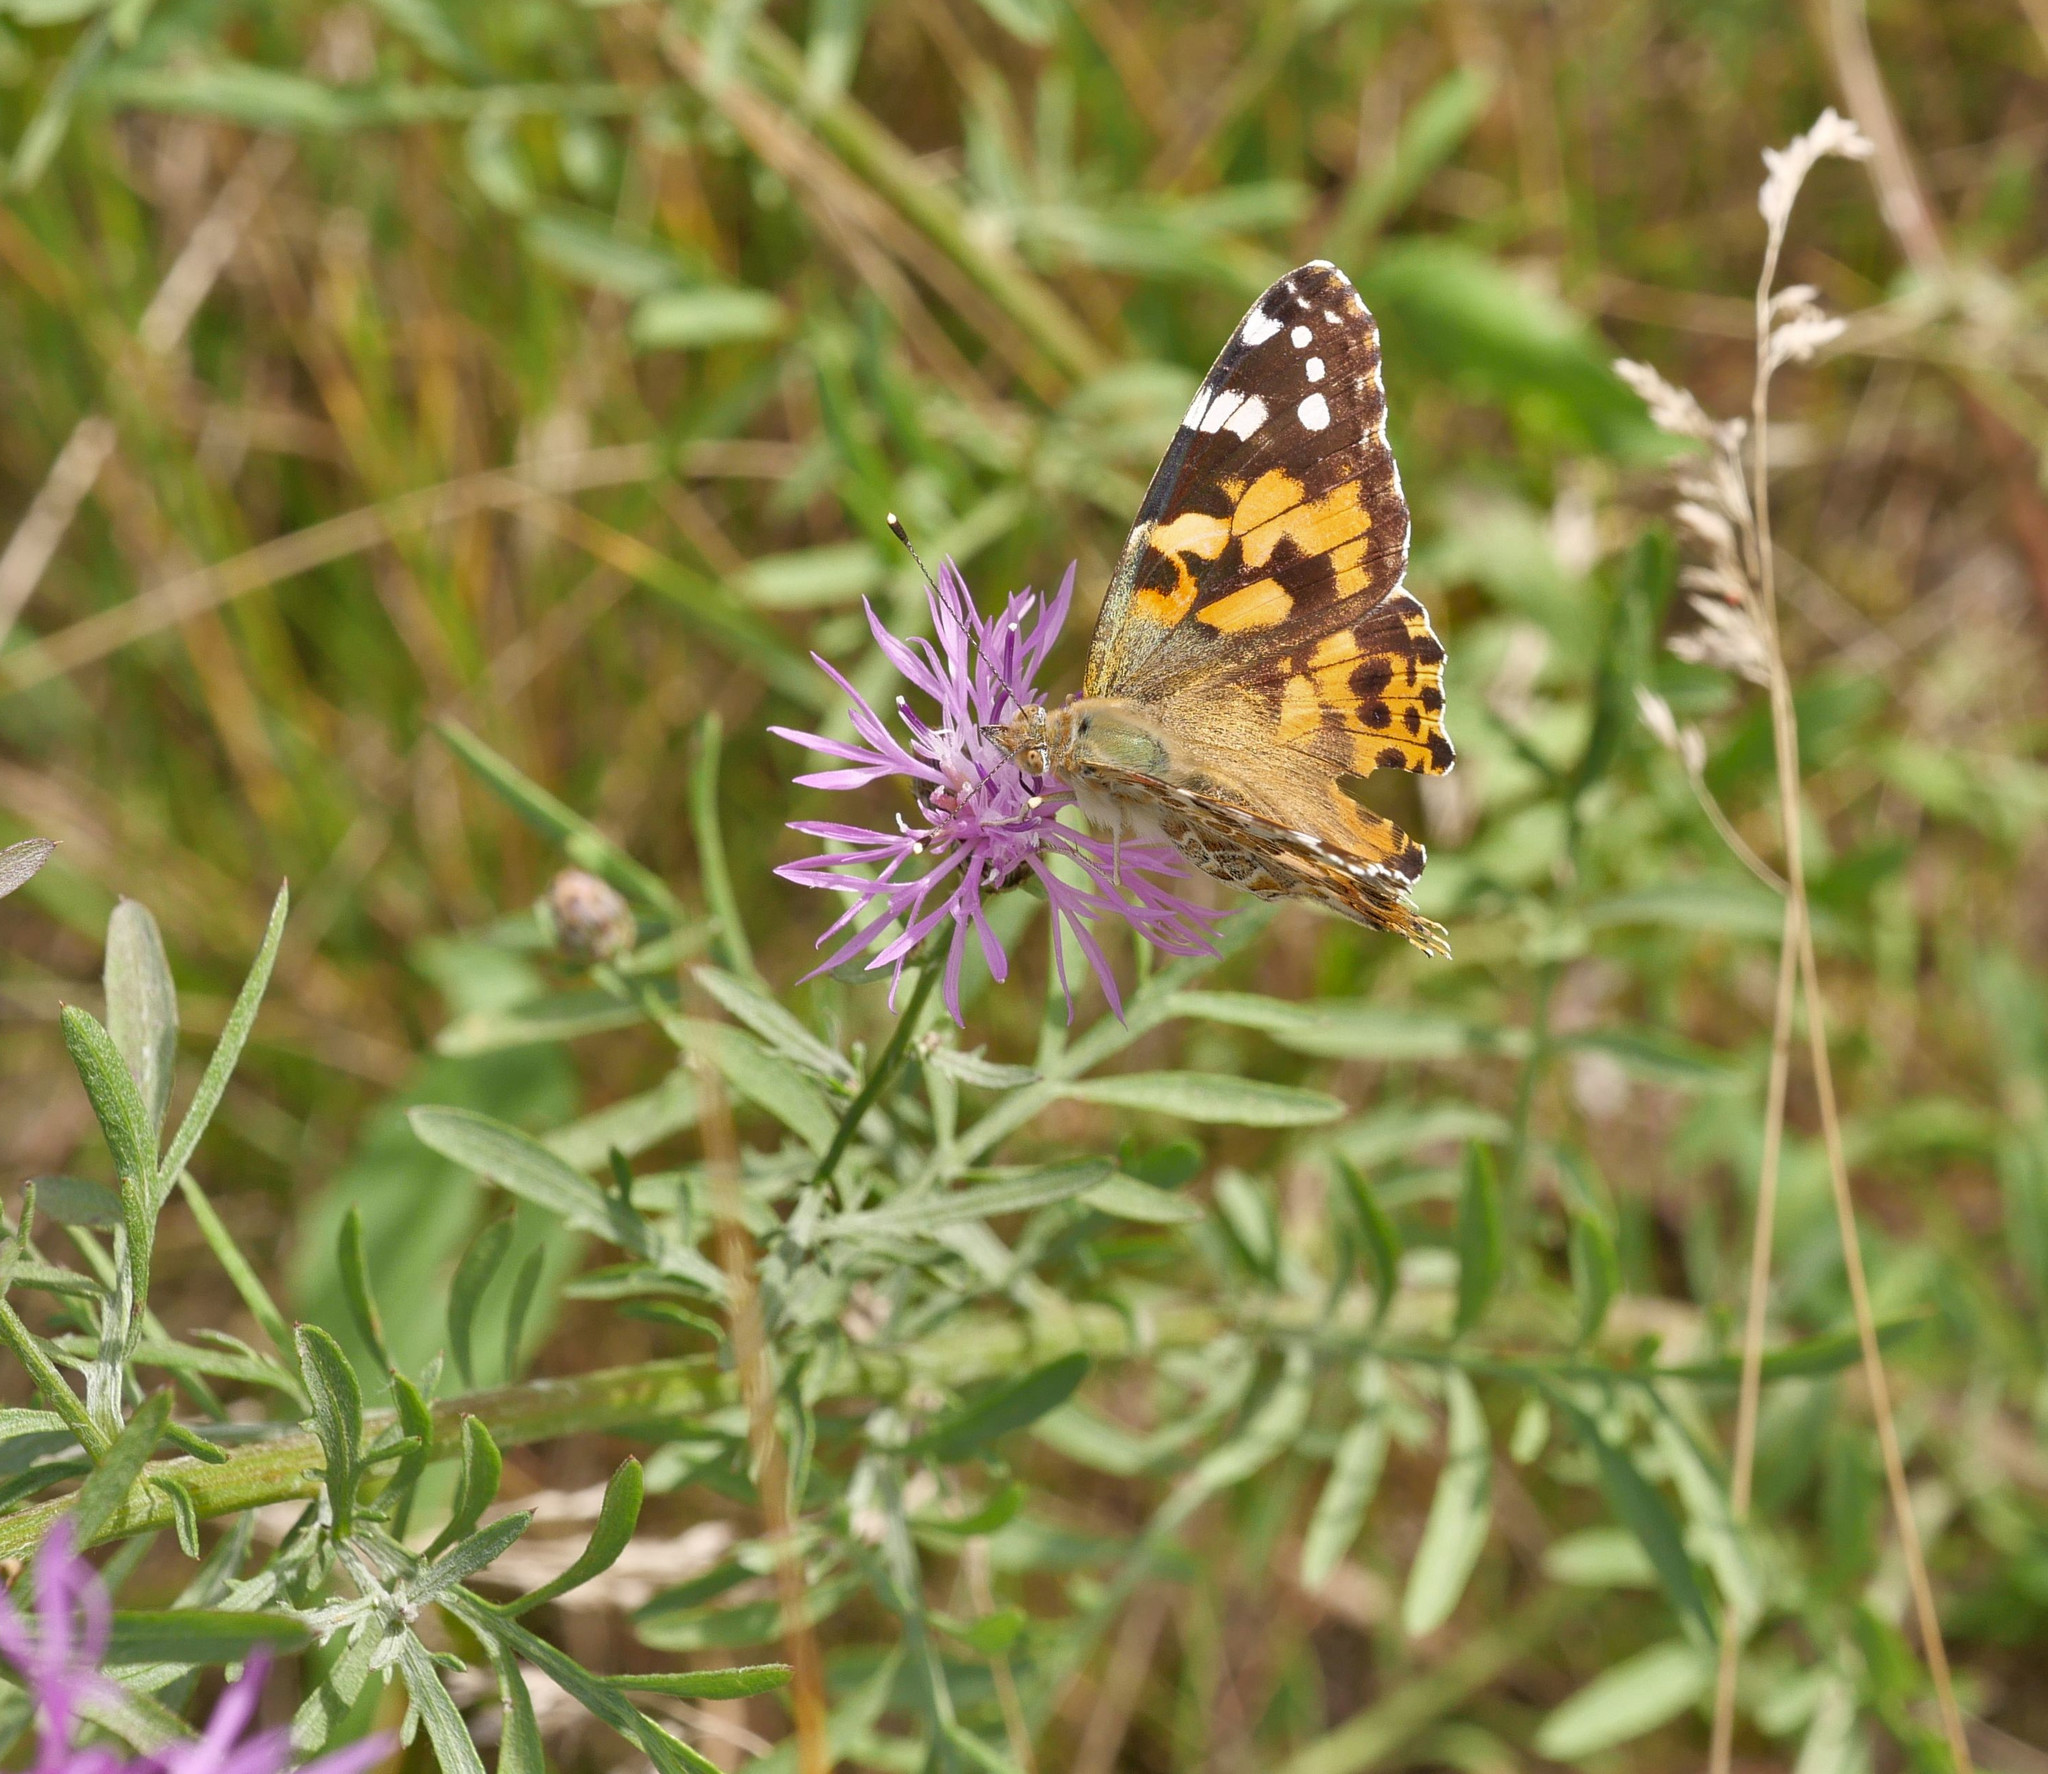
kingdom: Animalia
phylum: Arthropoda
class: Insecta
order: Lepidoptera
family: Nymphalidae
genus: Vanessa
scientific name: Vanessa cardui
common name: Painted lady
